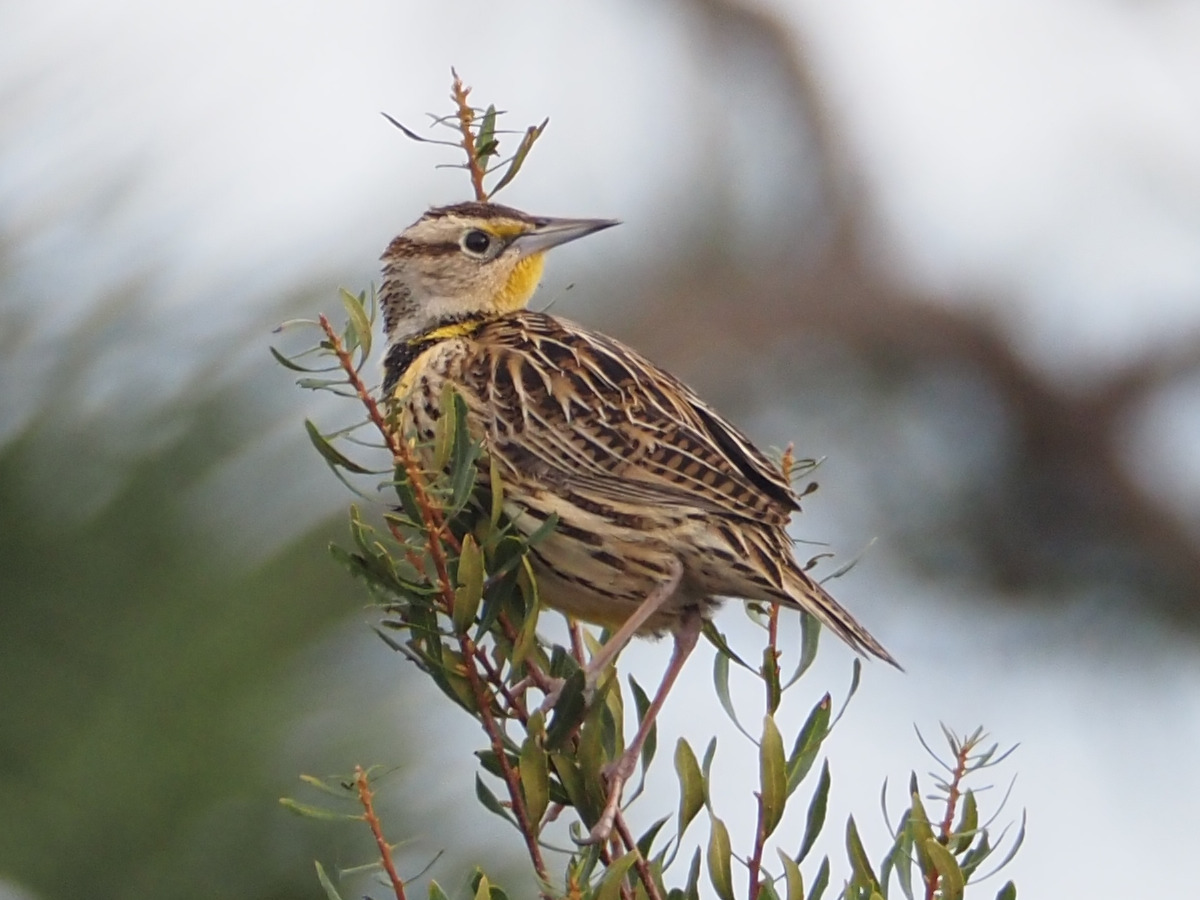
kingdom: Animalia
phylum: Chordata
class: Aves
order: Passeriformes
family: Icteridae
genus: Sturnella
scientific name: Sturnella magna
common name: Eastern meadowlark
